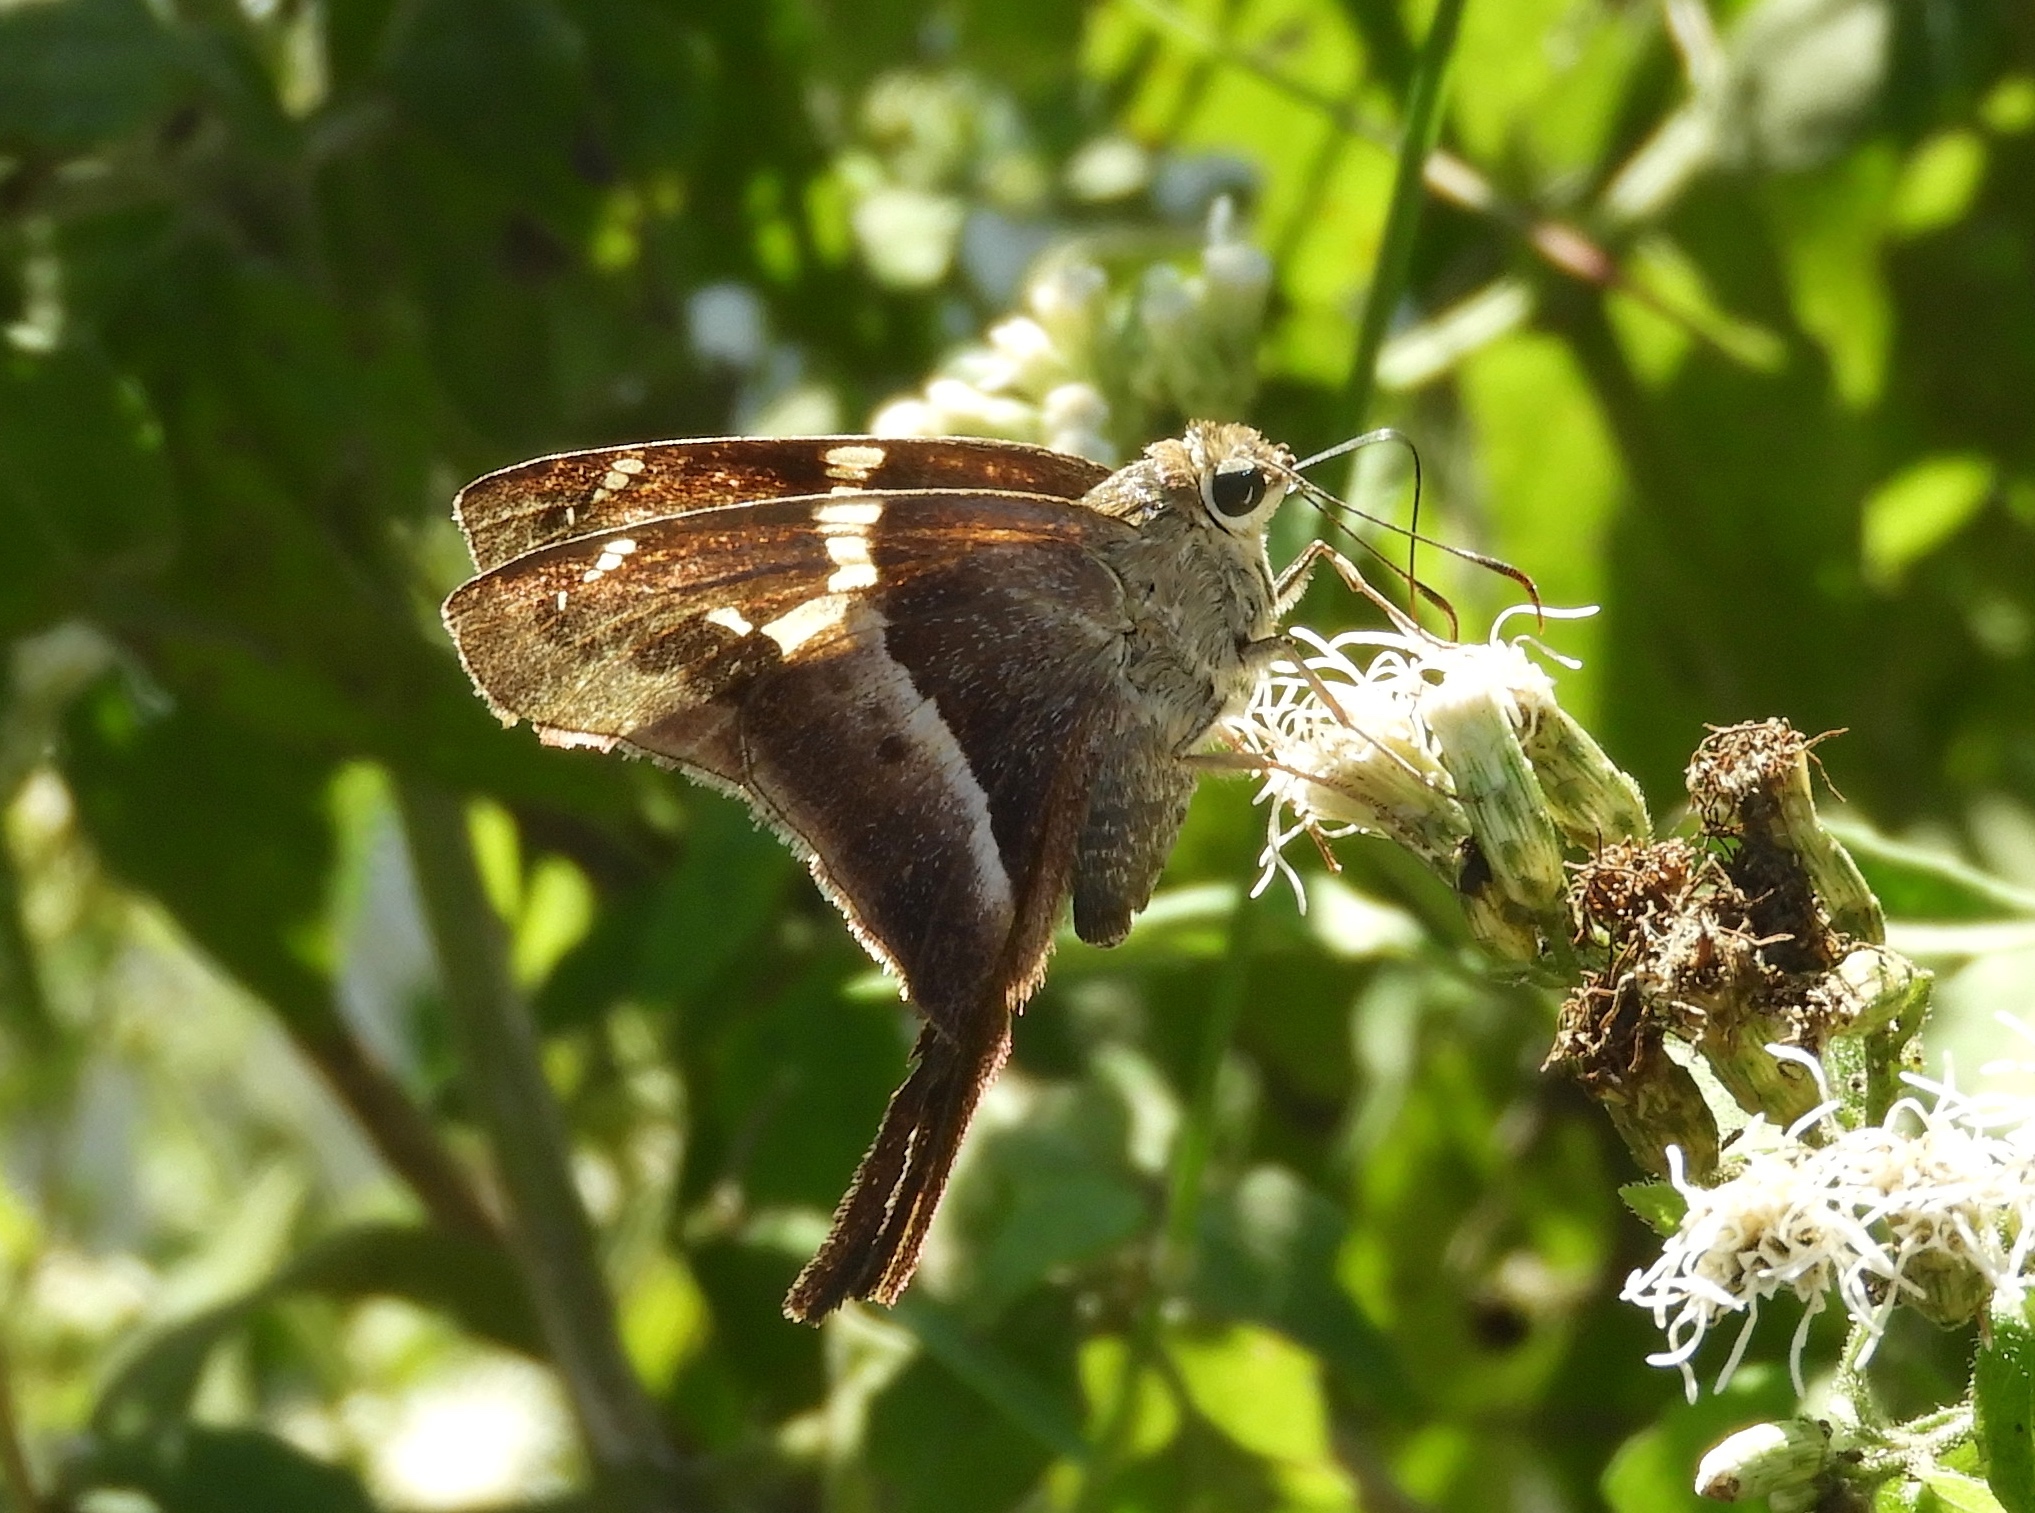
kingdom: Animalia
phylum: Arthropoda
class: Insecta
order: Lepidoptera
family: Hesperiidae
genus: Aguna
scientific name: Aguna metophis
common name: Tailed aguna
